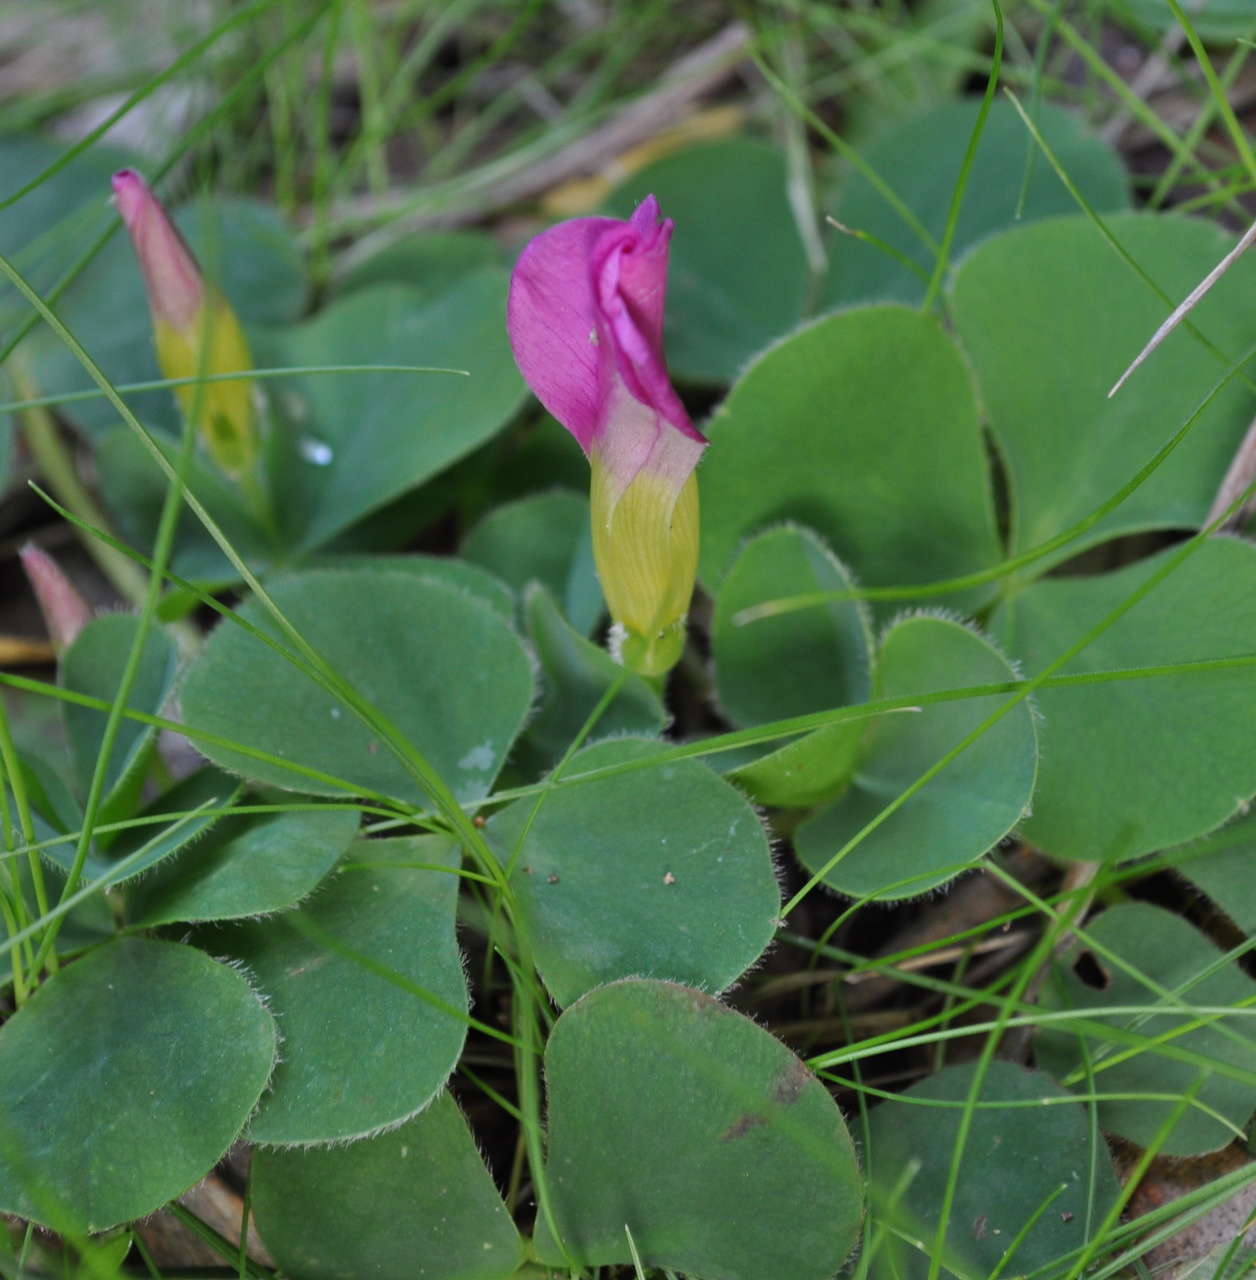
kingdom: Plantae
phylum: Tracheophyta
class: Magnoliopsida
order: Oxalidales
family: Oxalidaceae
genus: Oxalis
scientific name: Oxalis purpurea
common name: Purple woodsorrel
